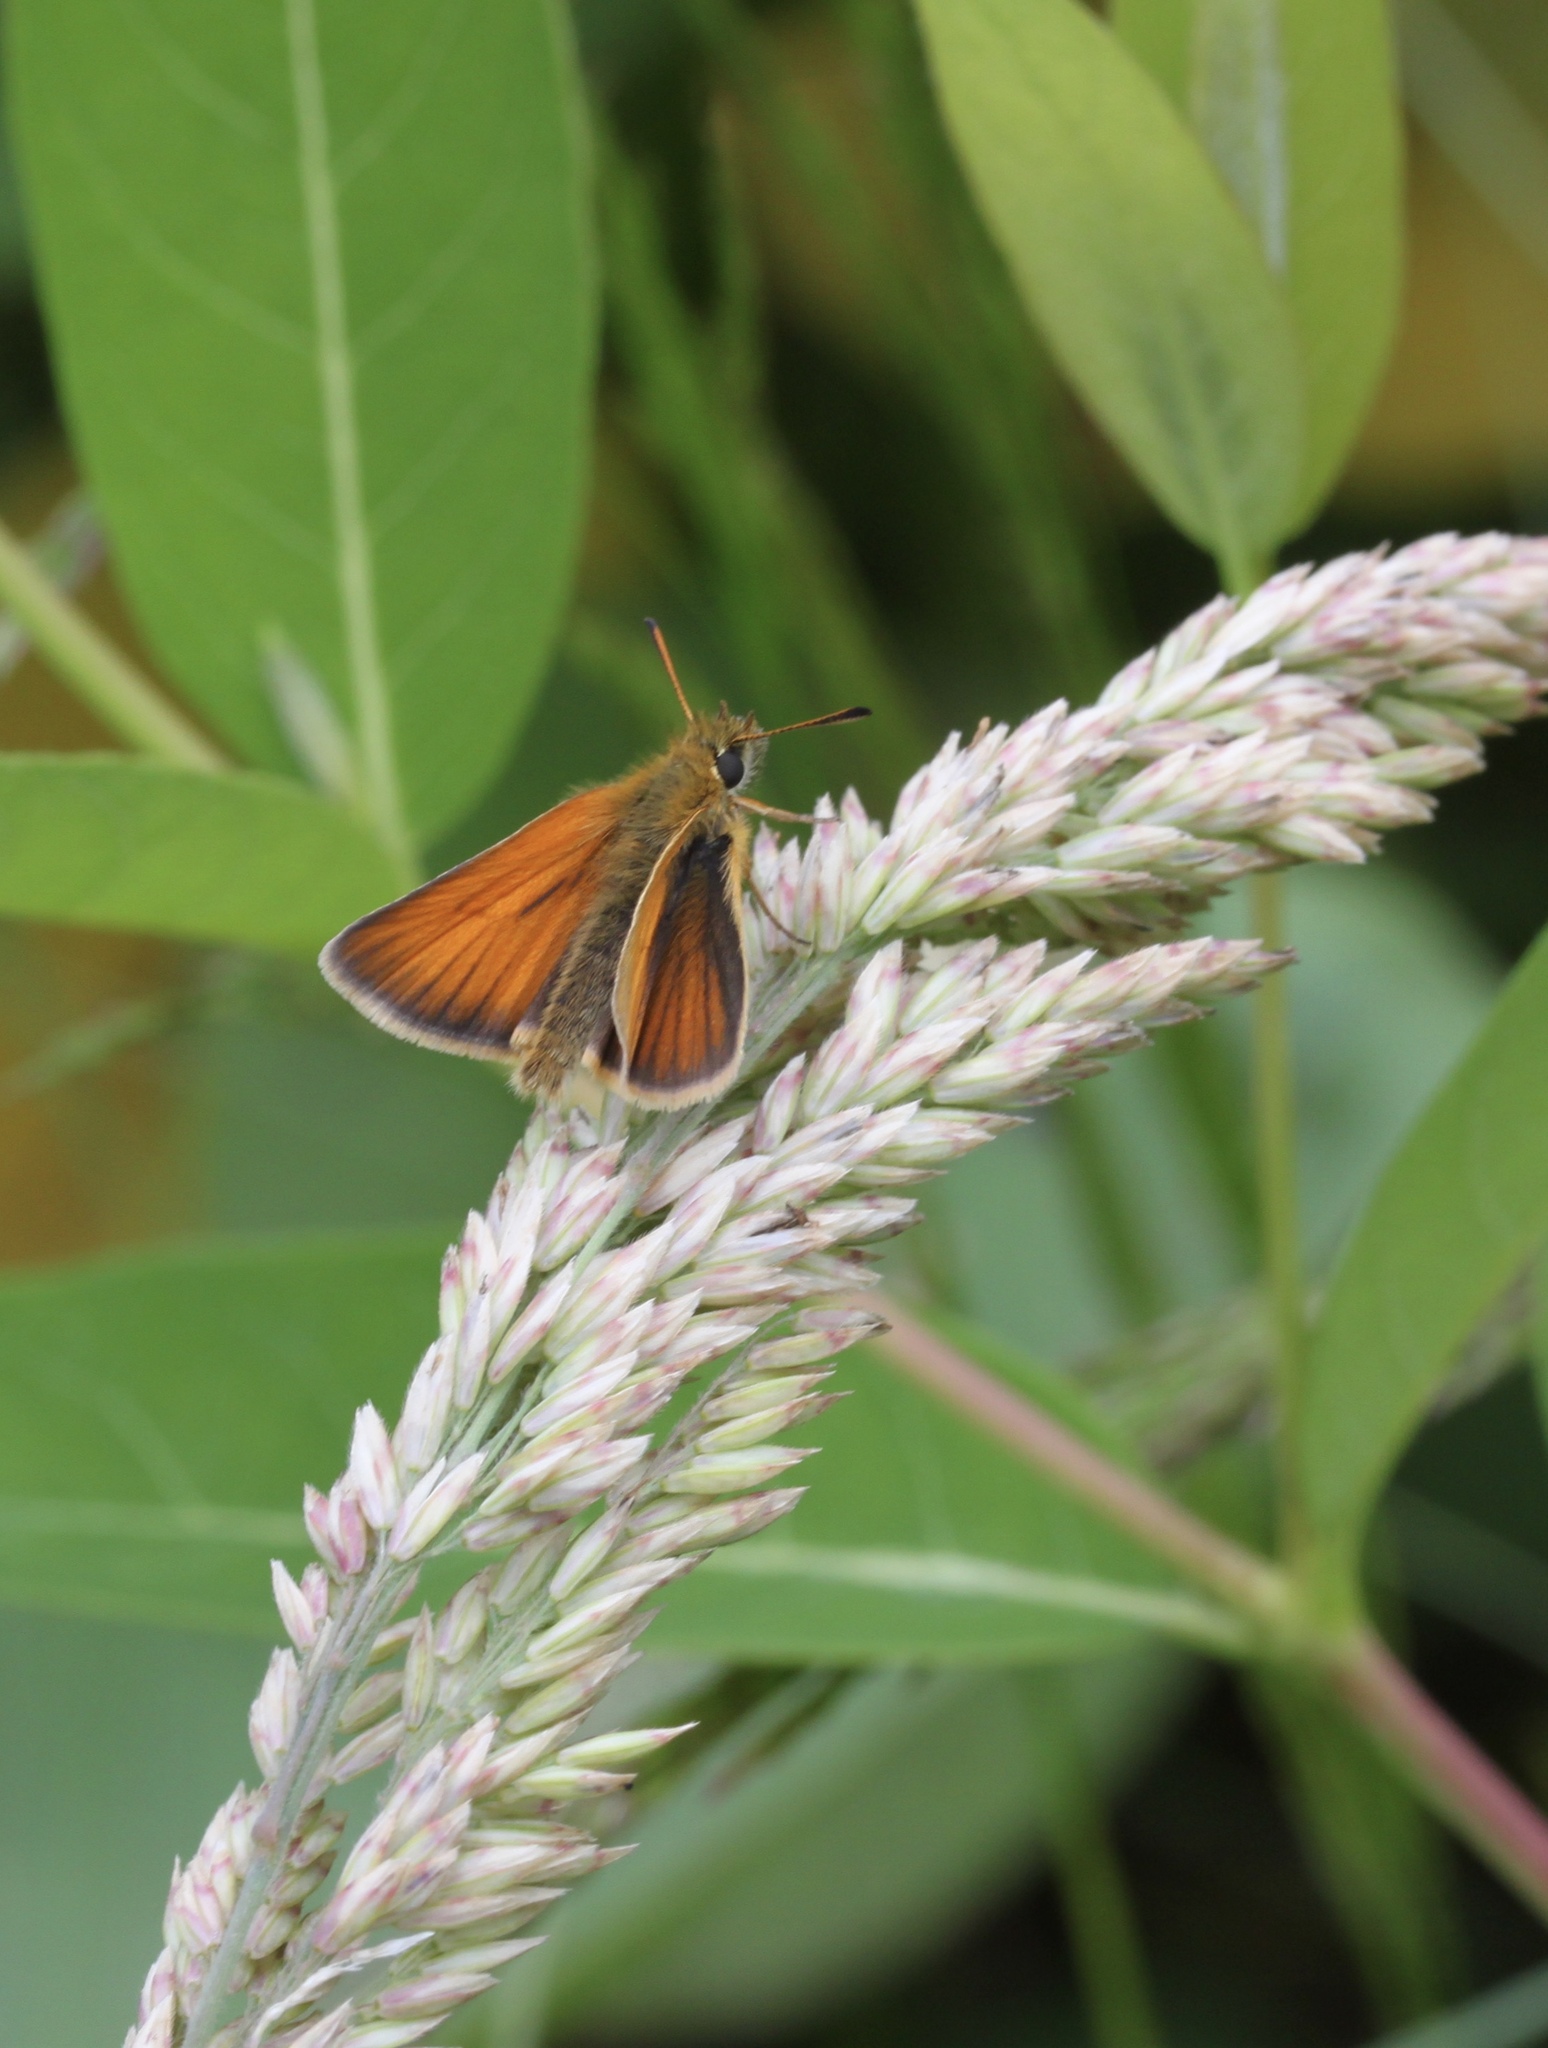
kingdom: Animalia
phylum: Arthropoda
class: Insecta
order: Lepidoptera
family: Hesperiidae
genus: Thymelicus
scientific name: Thymelicus lineola
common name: Essex skipper
